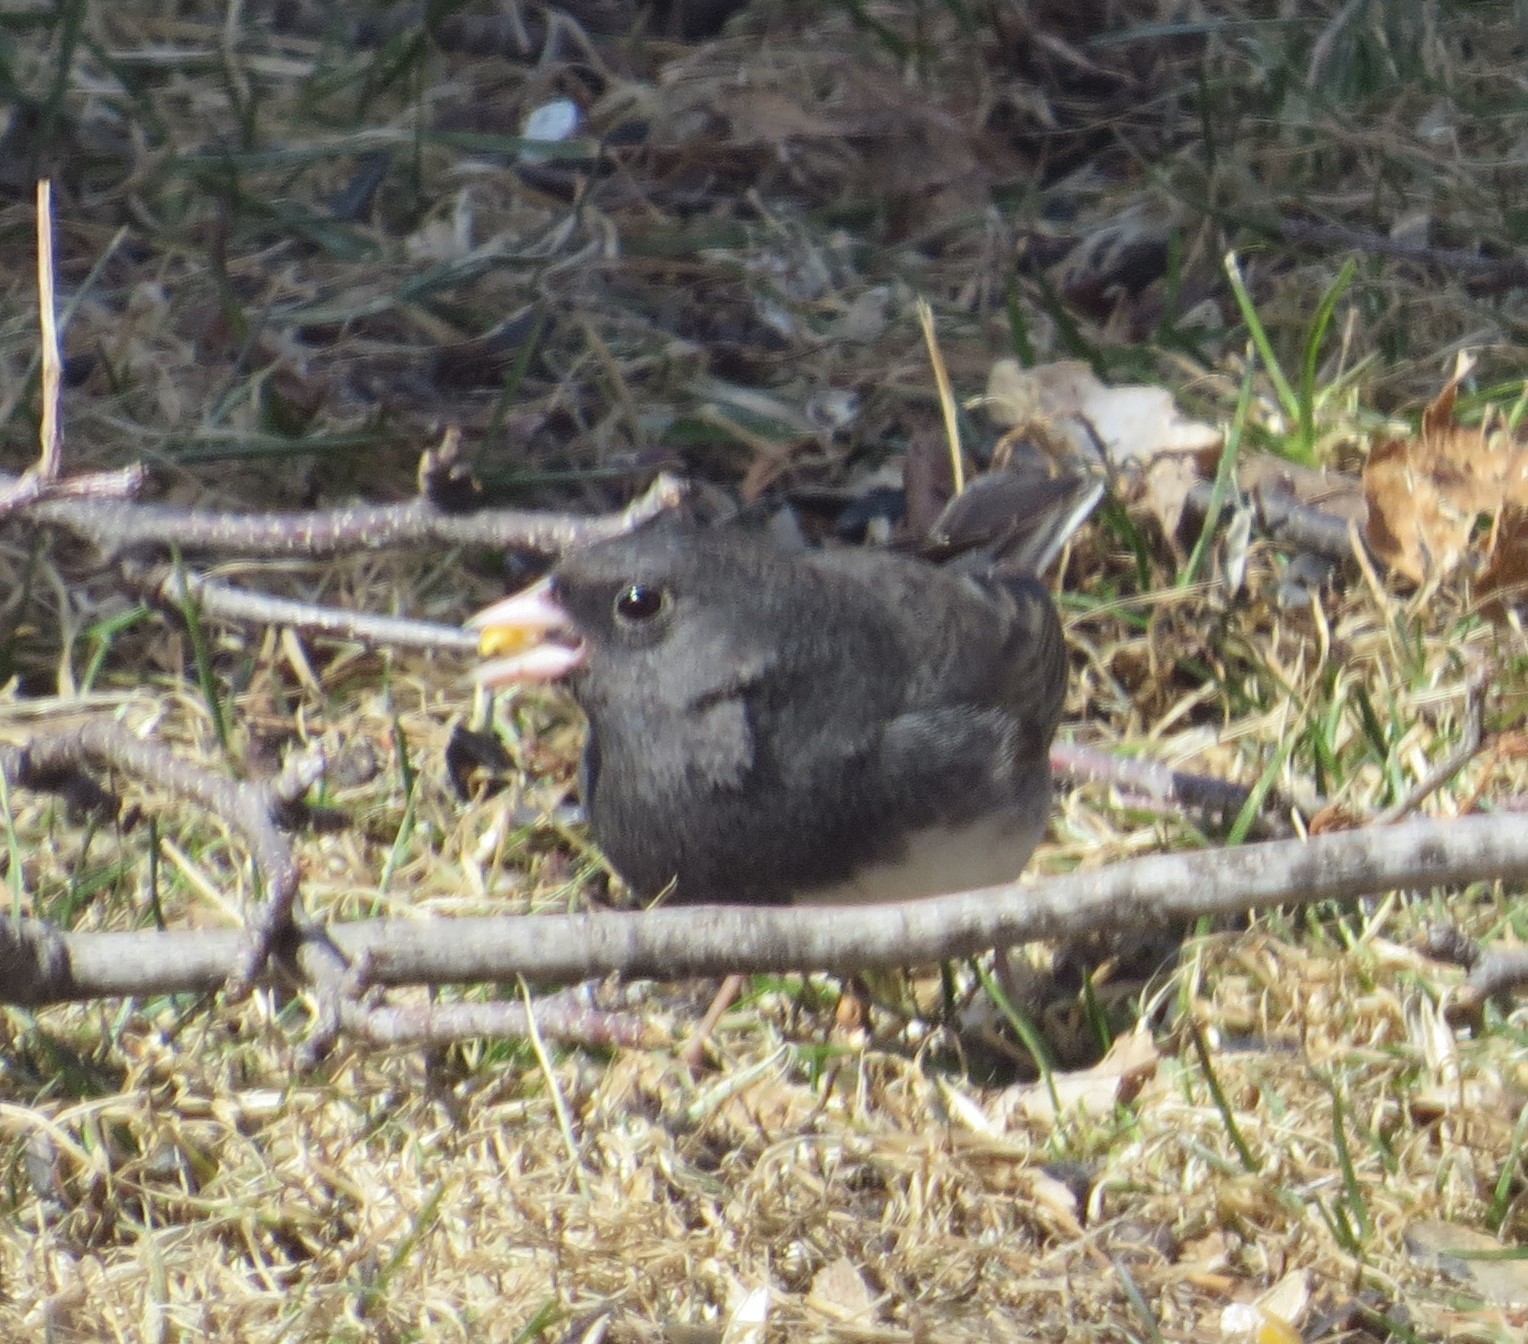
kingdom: Animalia
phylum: Chordata
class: Aves
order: Passeriformes
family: Passerellidae
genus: Junco
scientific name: Junco hyemalis
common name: Dark-eyed junco
